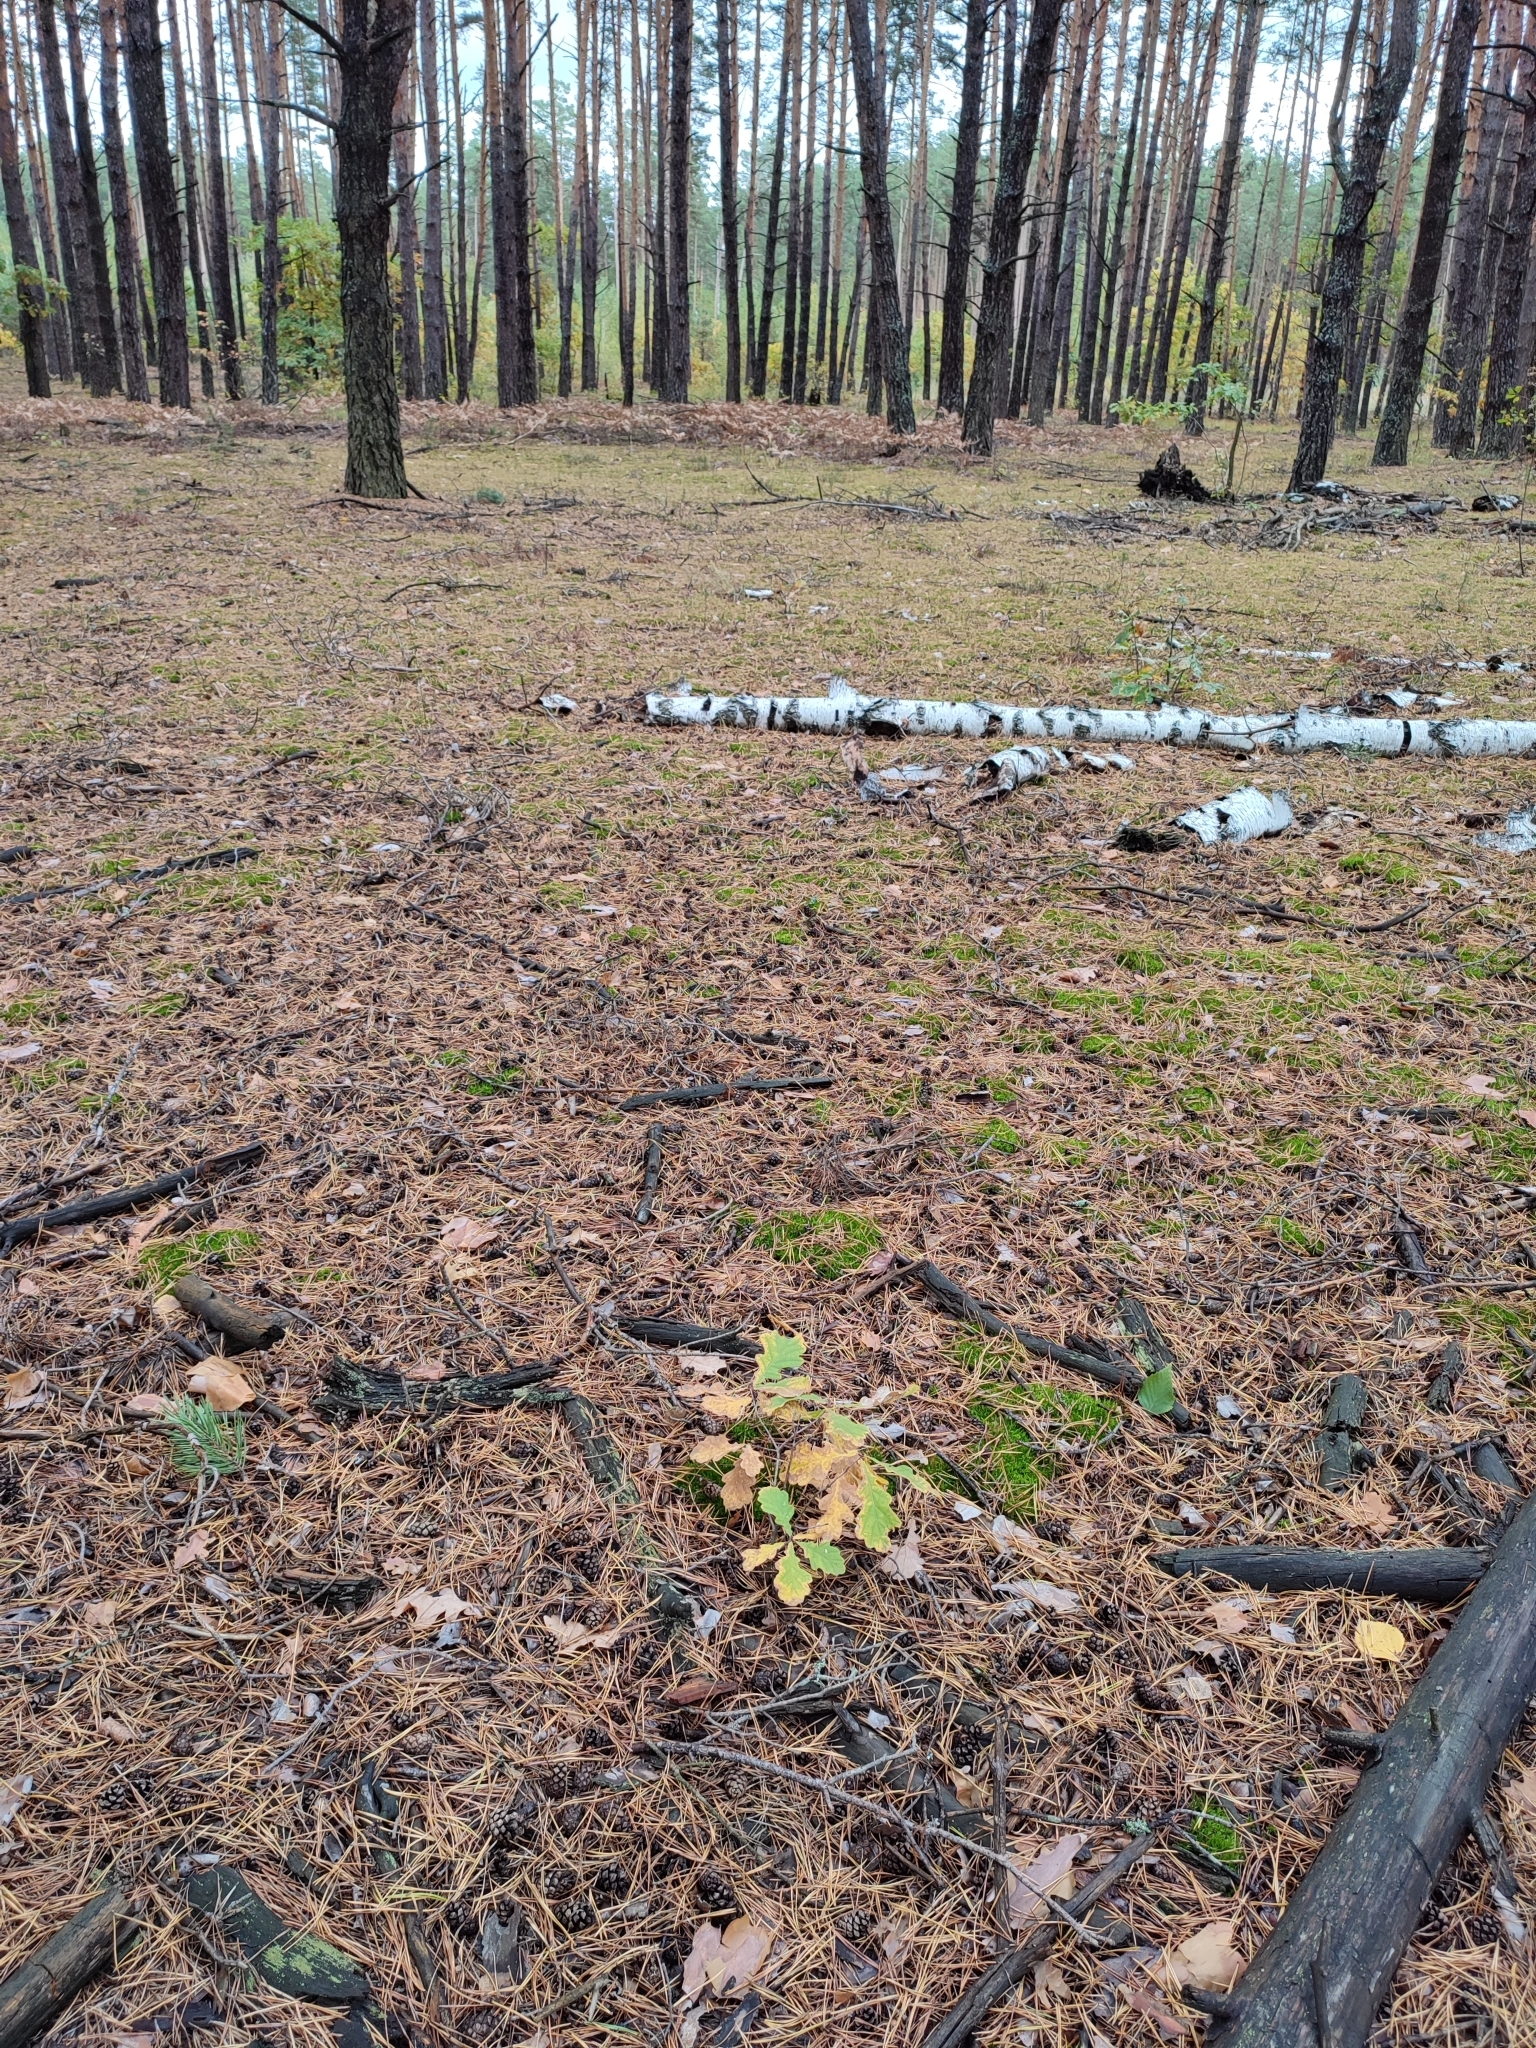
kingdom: Plantae
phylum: Tracheophyta
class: Magnoliopsida
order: Fagales
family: Fagaceae
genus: Quercus
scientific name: Quercus robur
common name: Pedunculate oak
